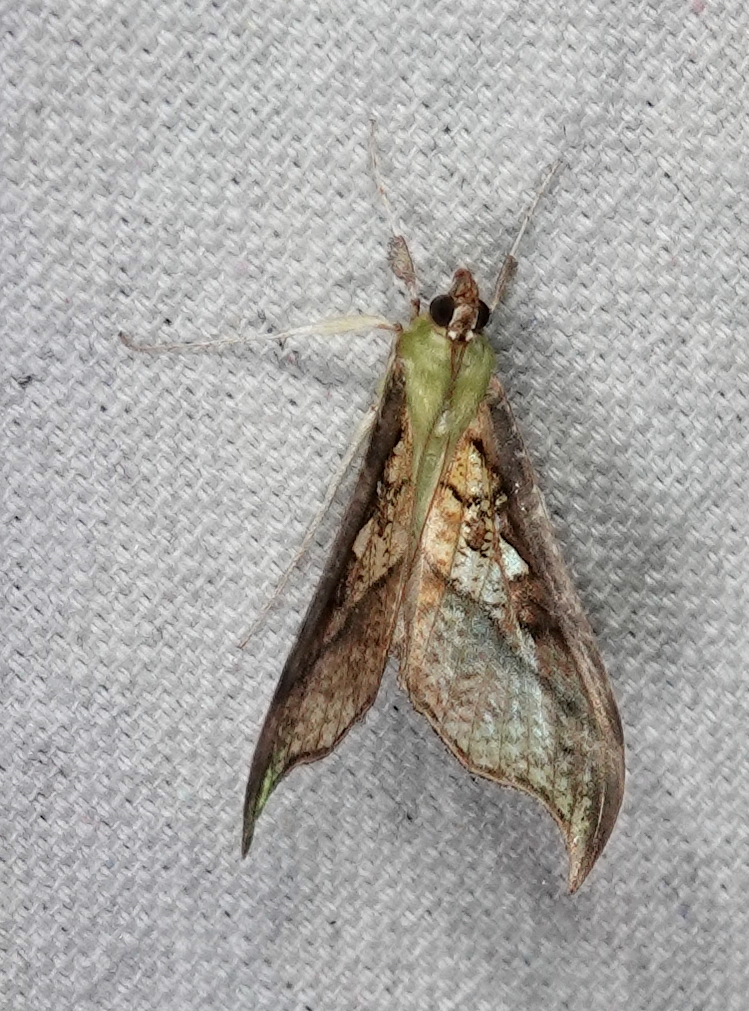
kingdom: Animalia
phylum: Arthropoda
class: Insecta
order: Lepidoptera
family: Crambidae
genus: Megaphysa
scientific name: Megaphysa herbiferalis
